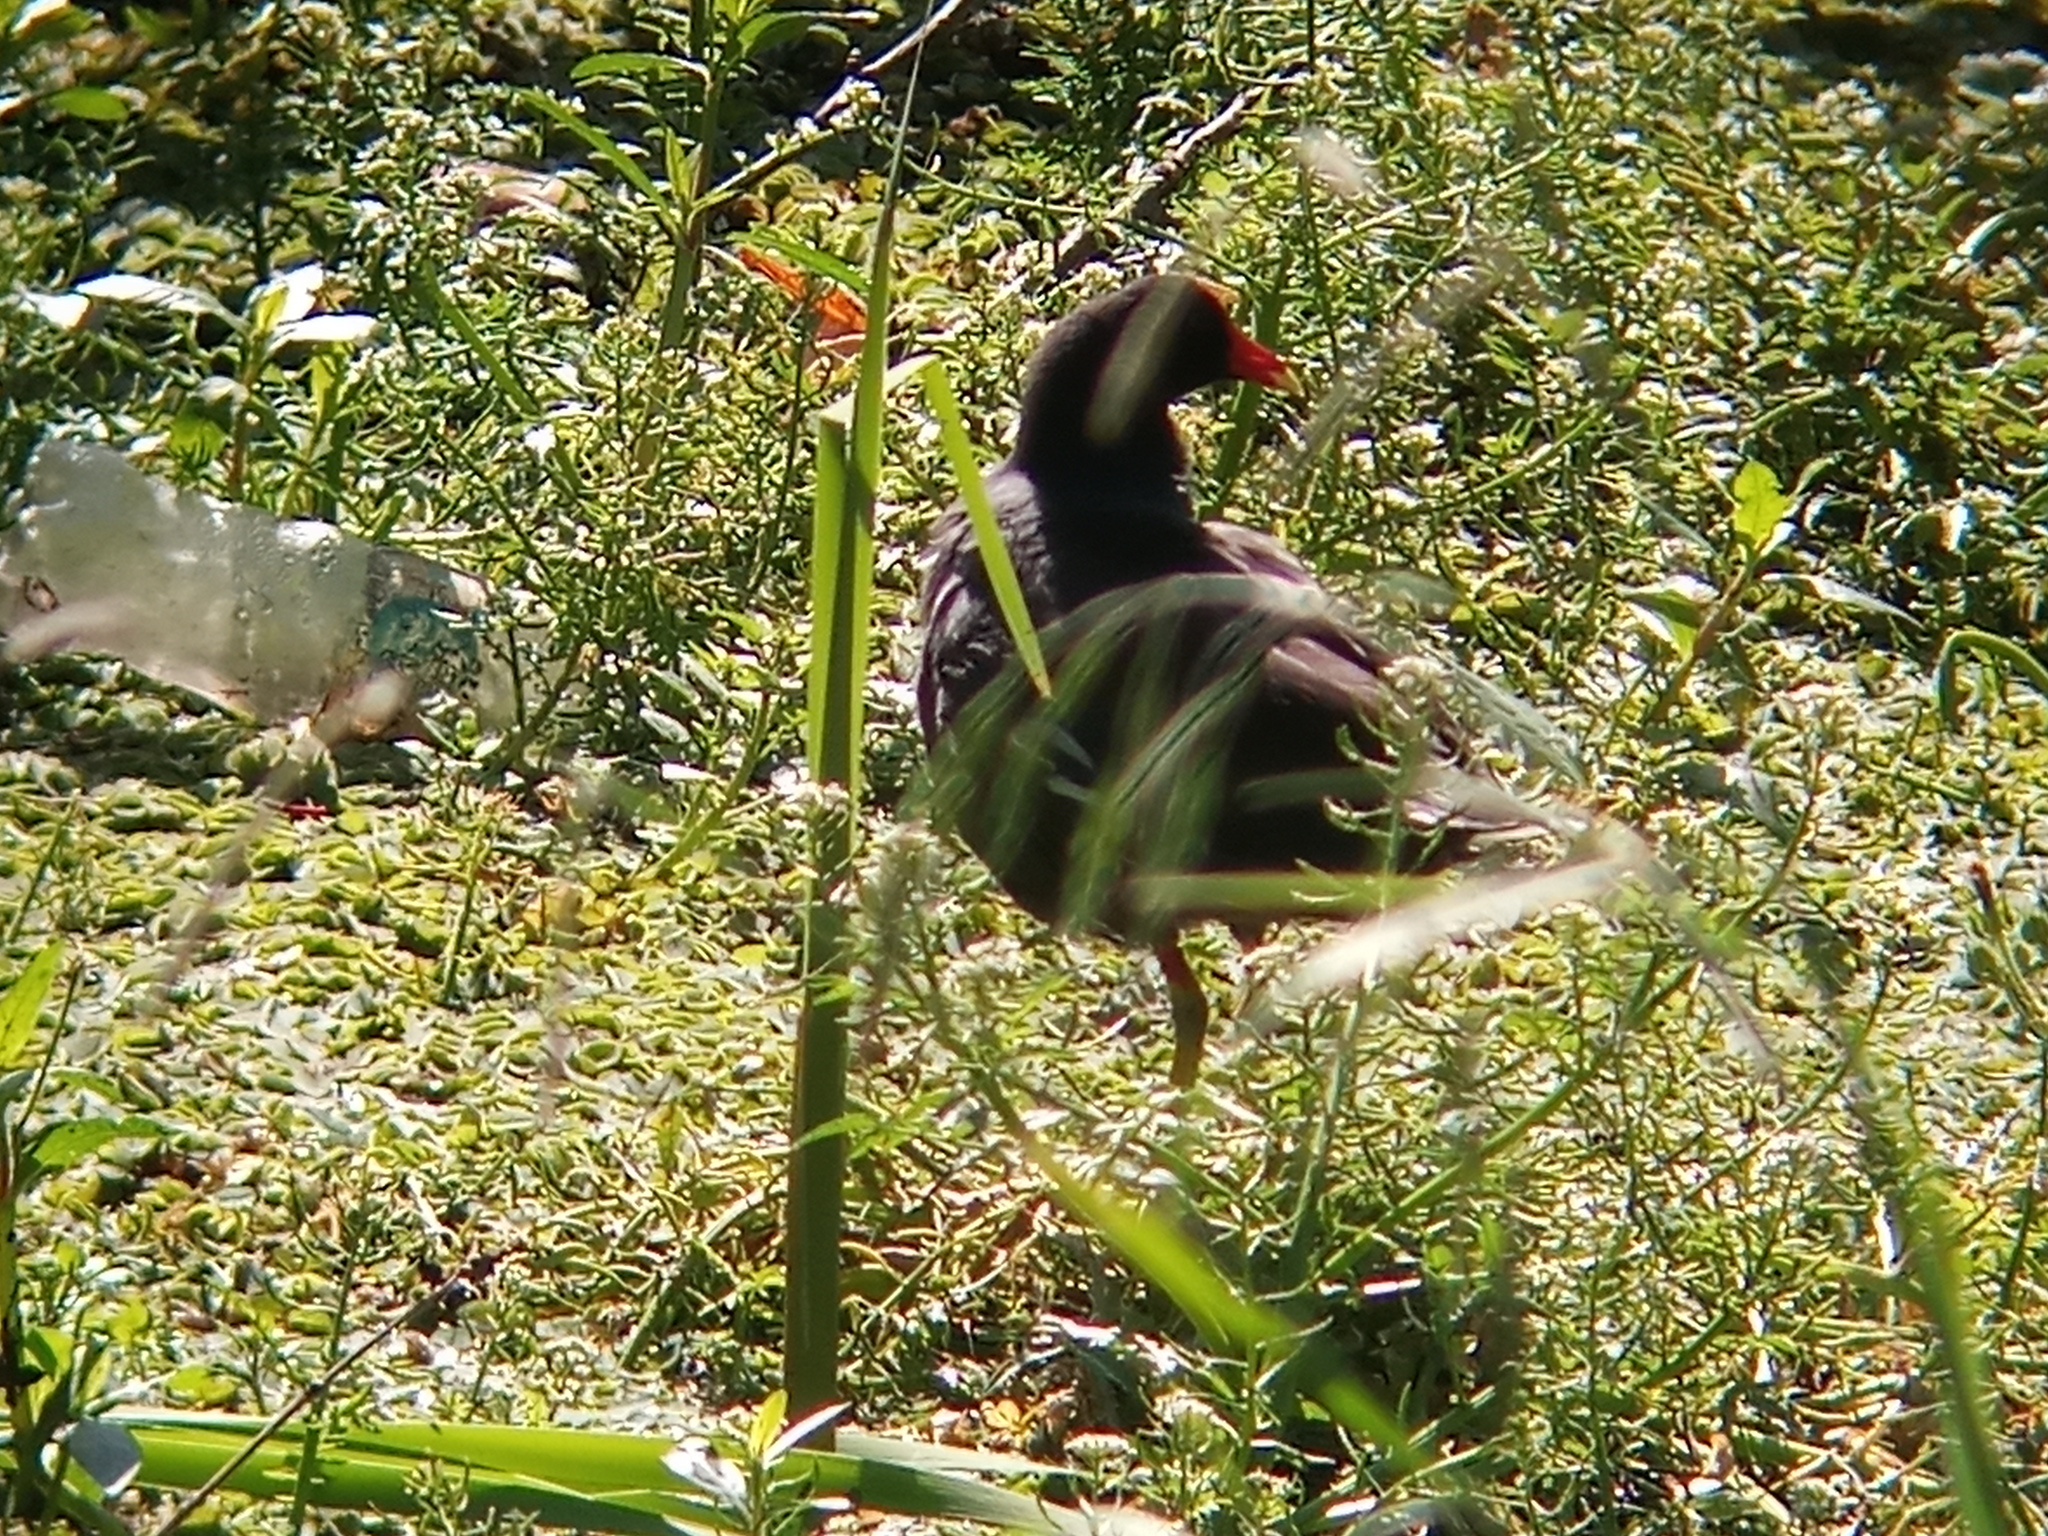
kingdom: Animalia
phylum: Chordata
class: Aves
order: Gruiformes
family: Rallidae
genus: Gallinula
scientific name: Gallinula chloropus
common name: Common moorhen
